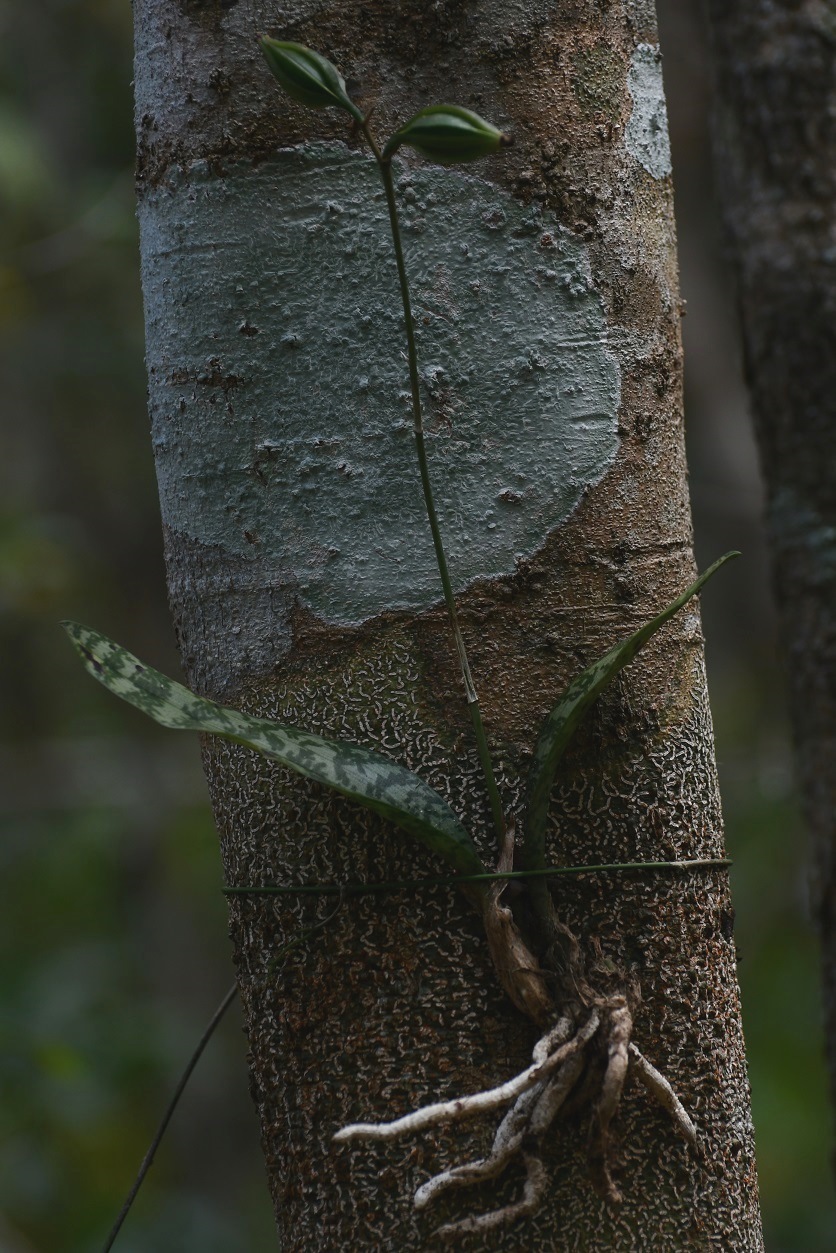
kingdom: Plantae
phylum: Tracheophyta
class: Liliopsida
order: Asparagales
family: Orchidaceae
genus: Eulophia
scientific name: Eulophia maculata
